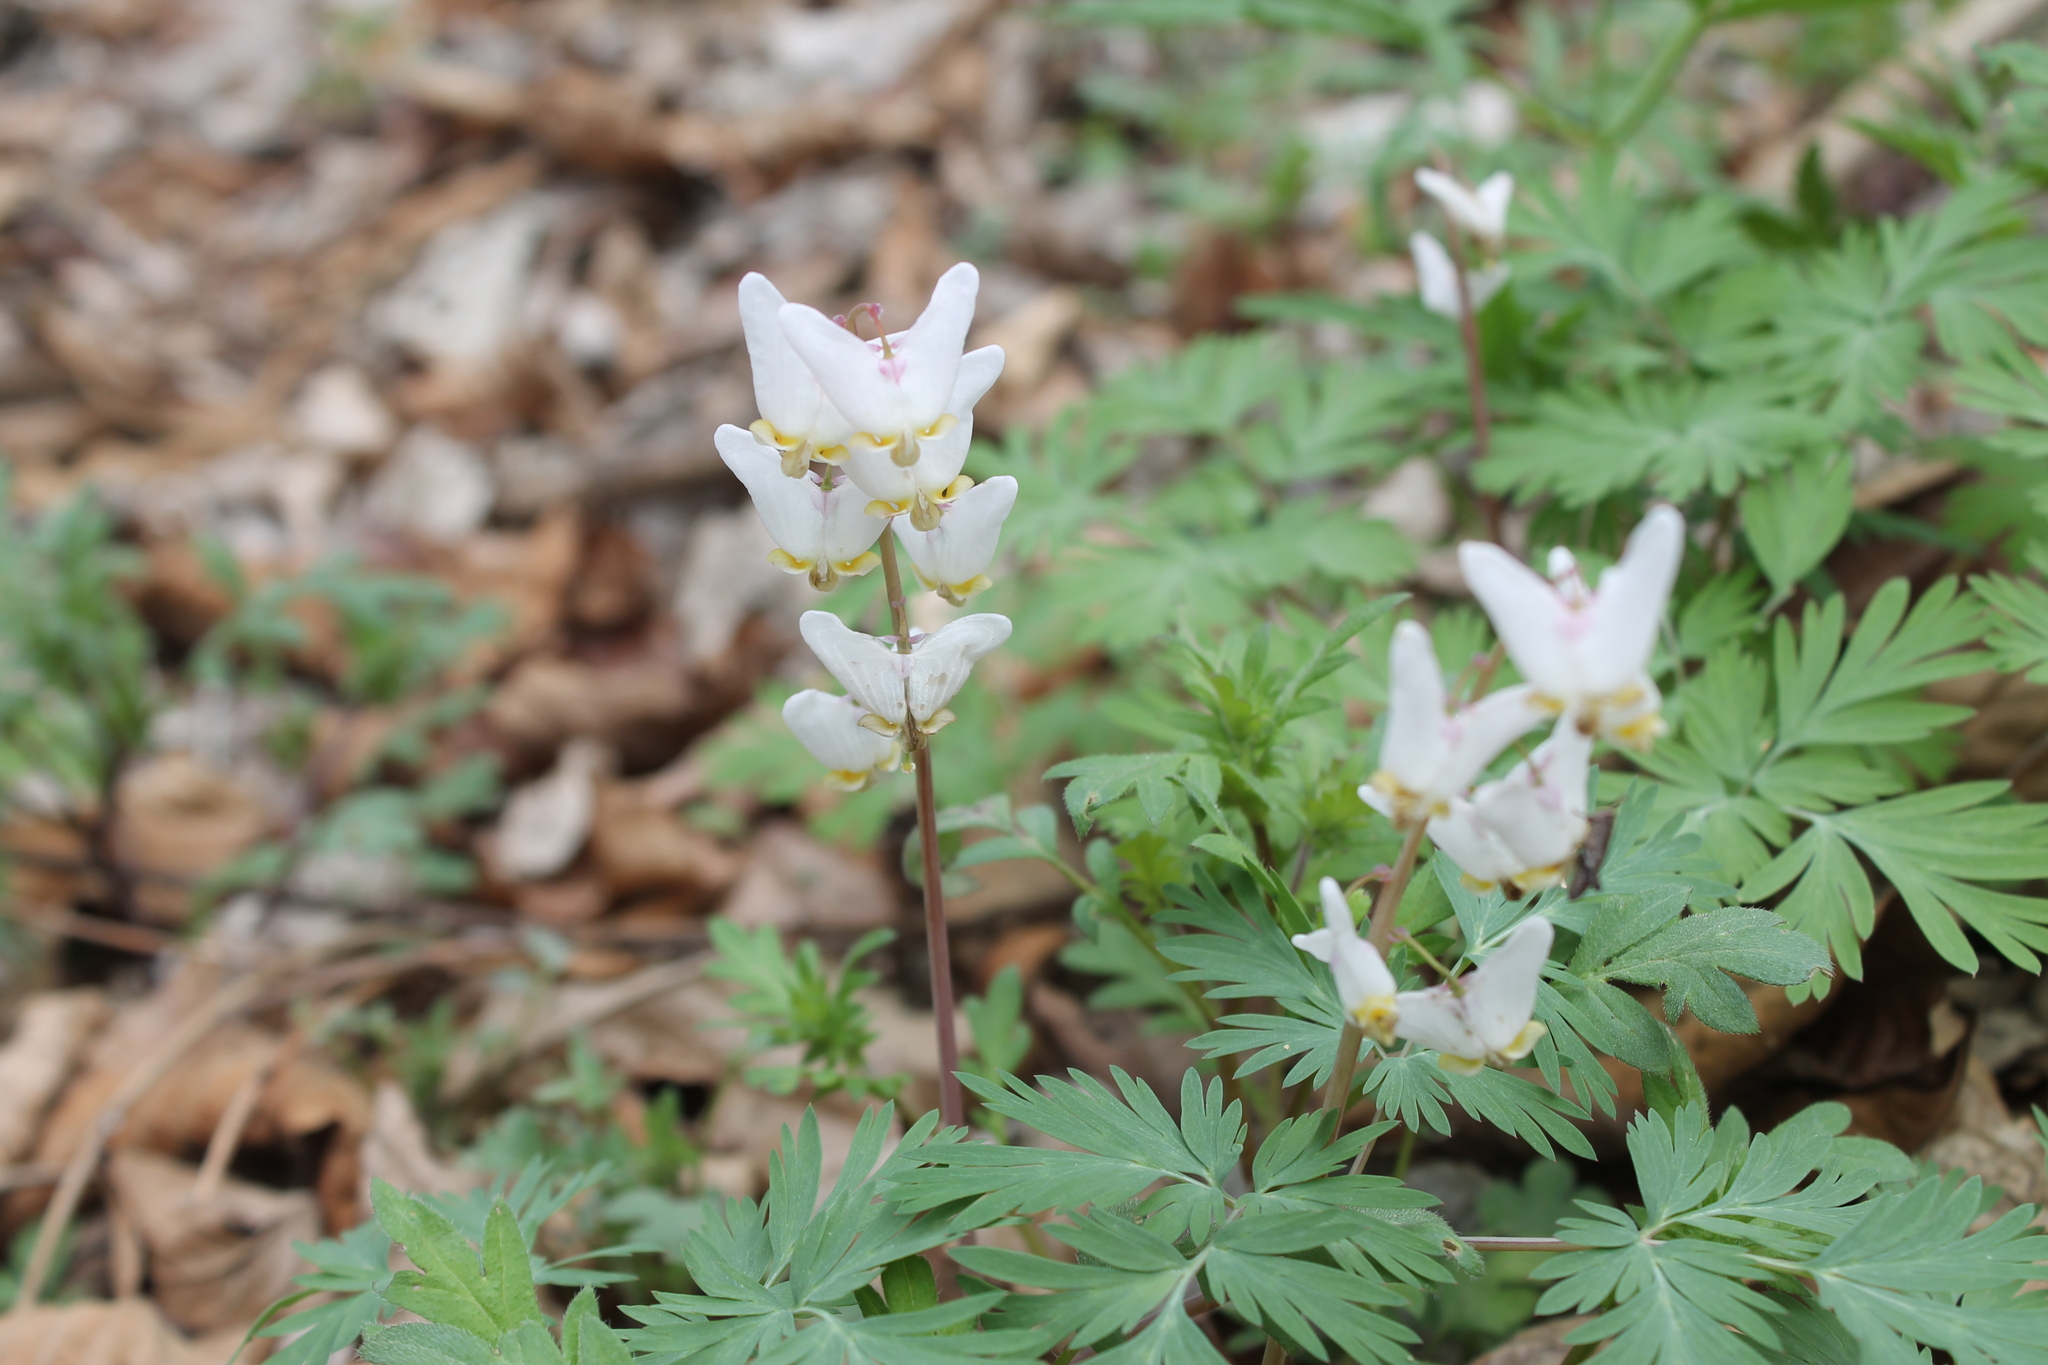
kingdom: Plantae
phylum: Tracheophyta
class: Magnoliopsida
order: Ranunculales
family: Papaveraceae
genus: Dicentra
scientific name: Dicentra cucullaria
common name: Dutchman's breeches
